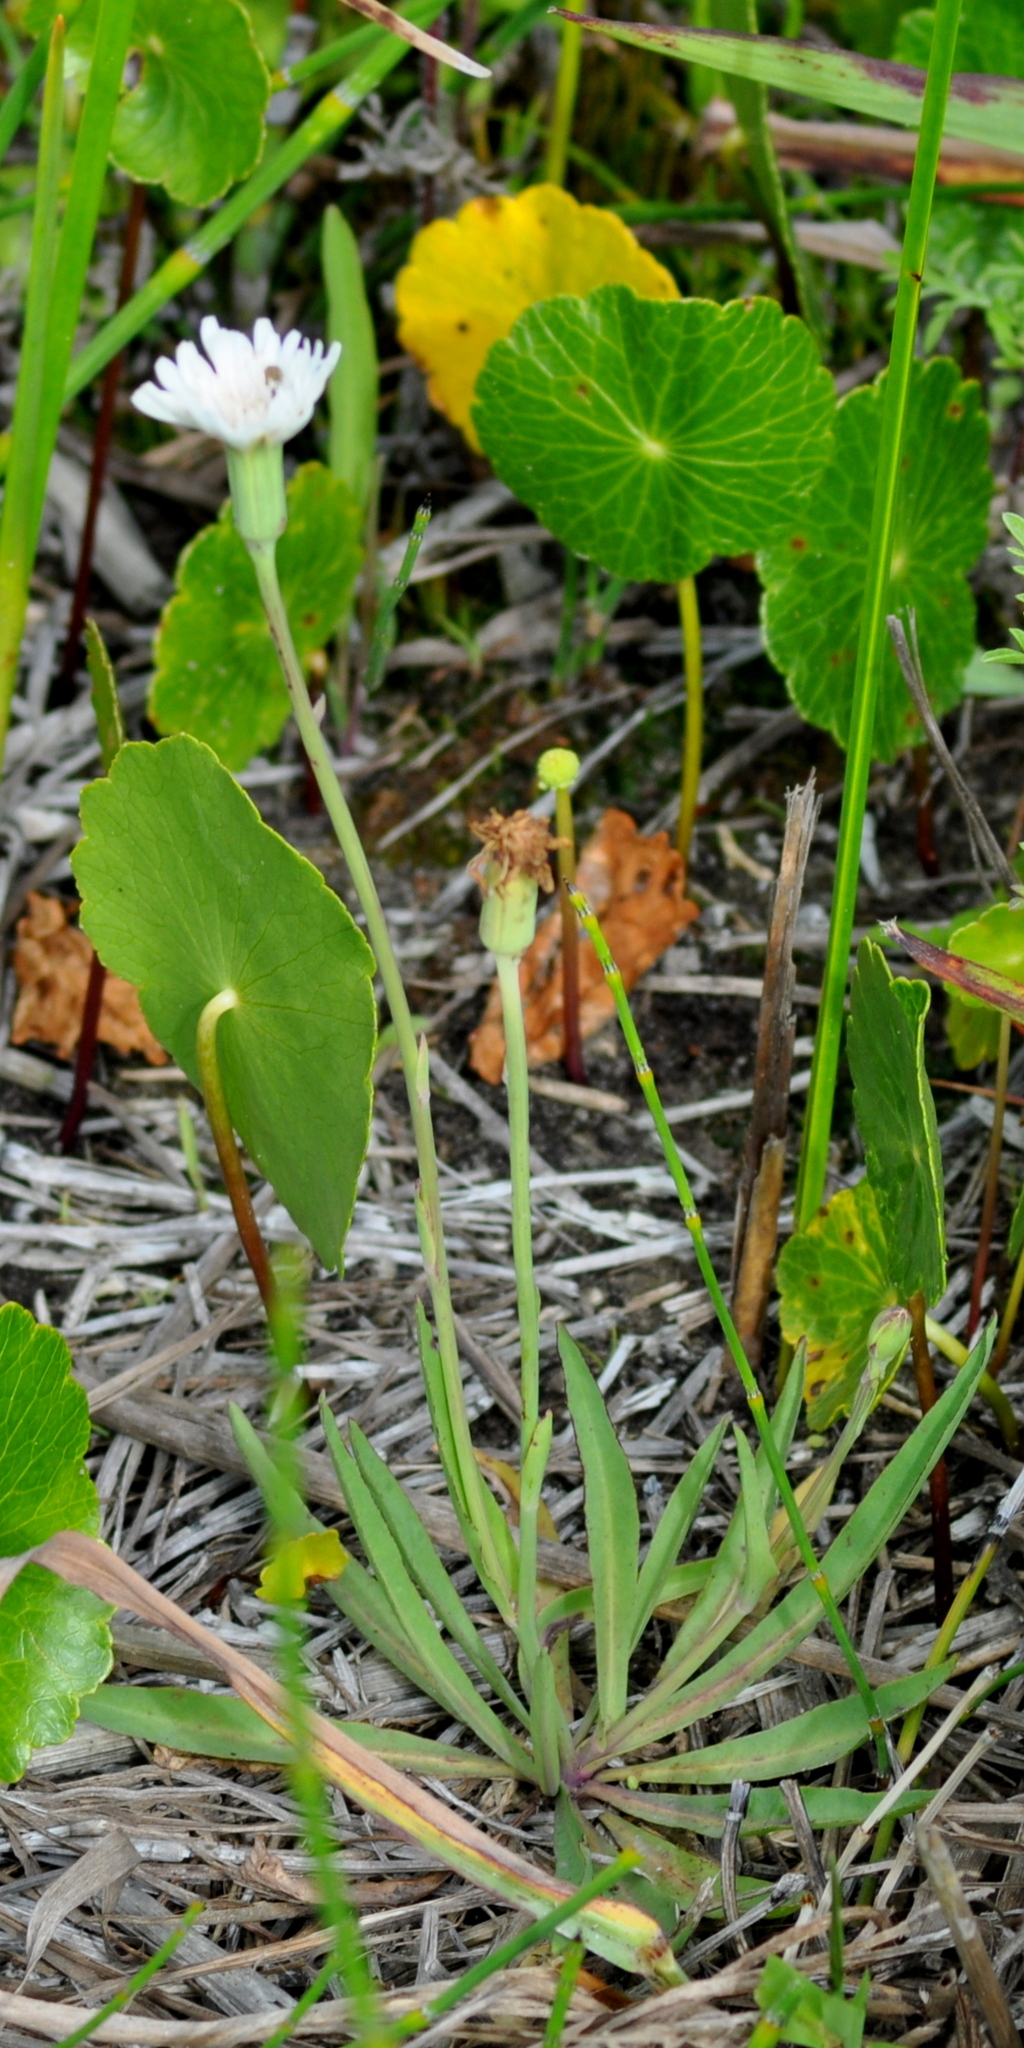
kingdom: Plantae
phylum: Tracheophyta
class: Magnoliopsida
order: Asterales
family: Asteraceae
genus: Picrosia
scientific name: Picrosia longifolia
